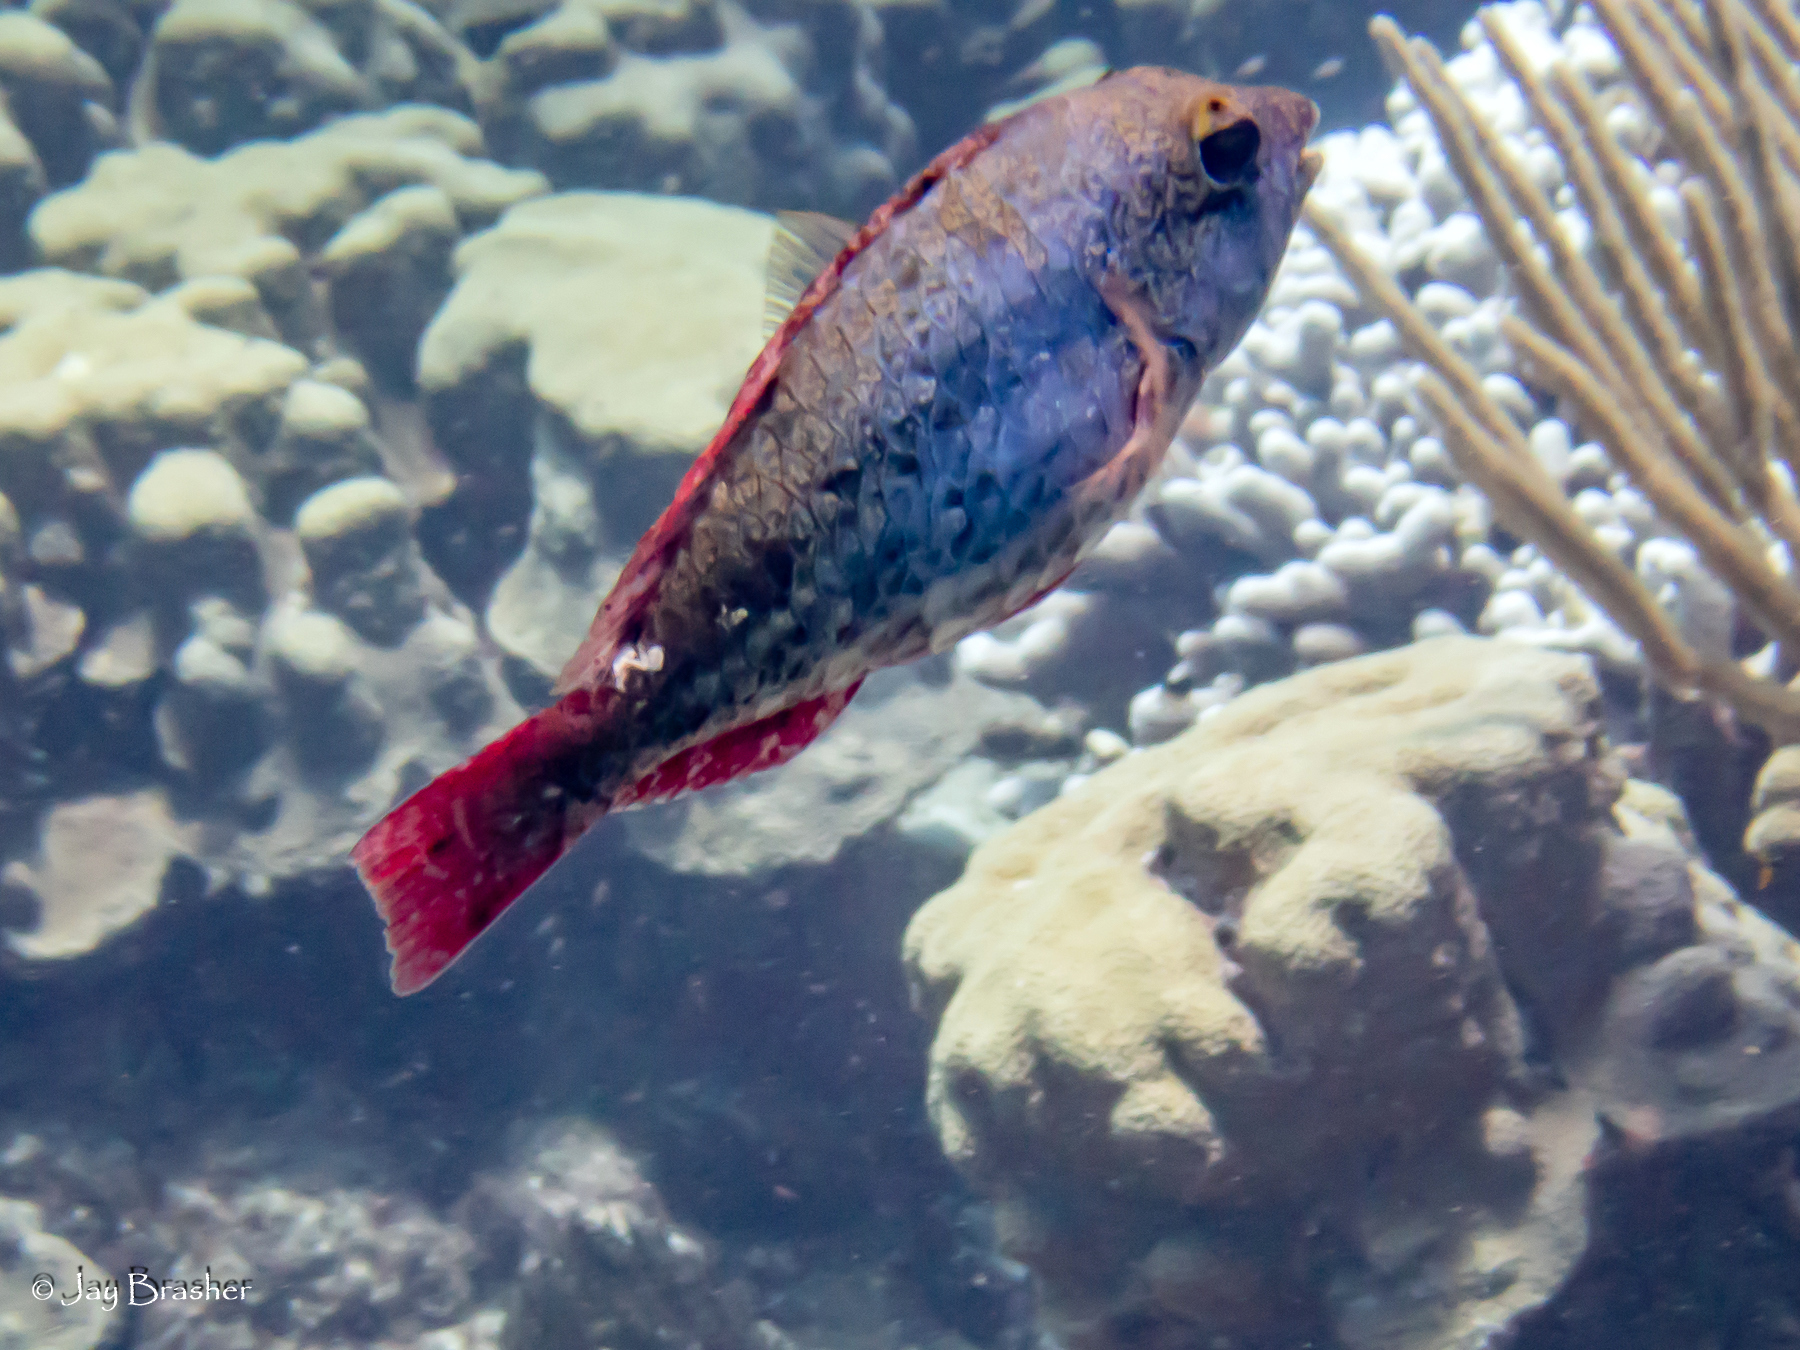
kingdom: Animalia
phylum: Chordata
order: Perciformes
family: Scaridae
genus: Sparisoma
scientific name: Sparisoma aurofrenatum
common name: Redband parrotfish
